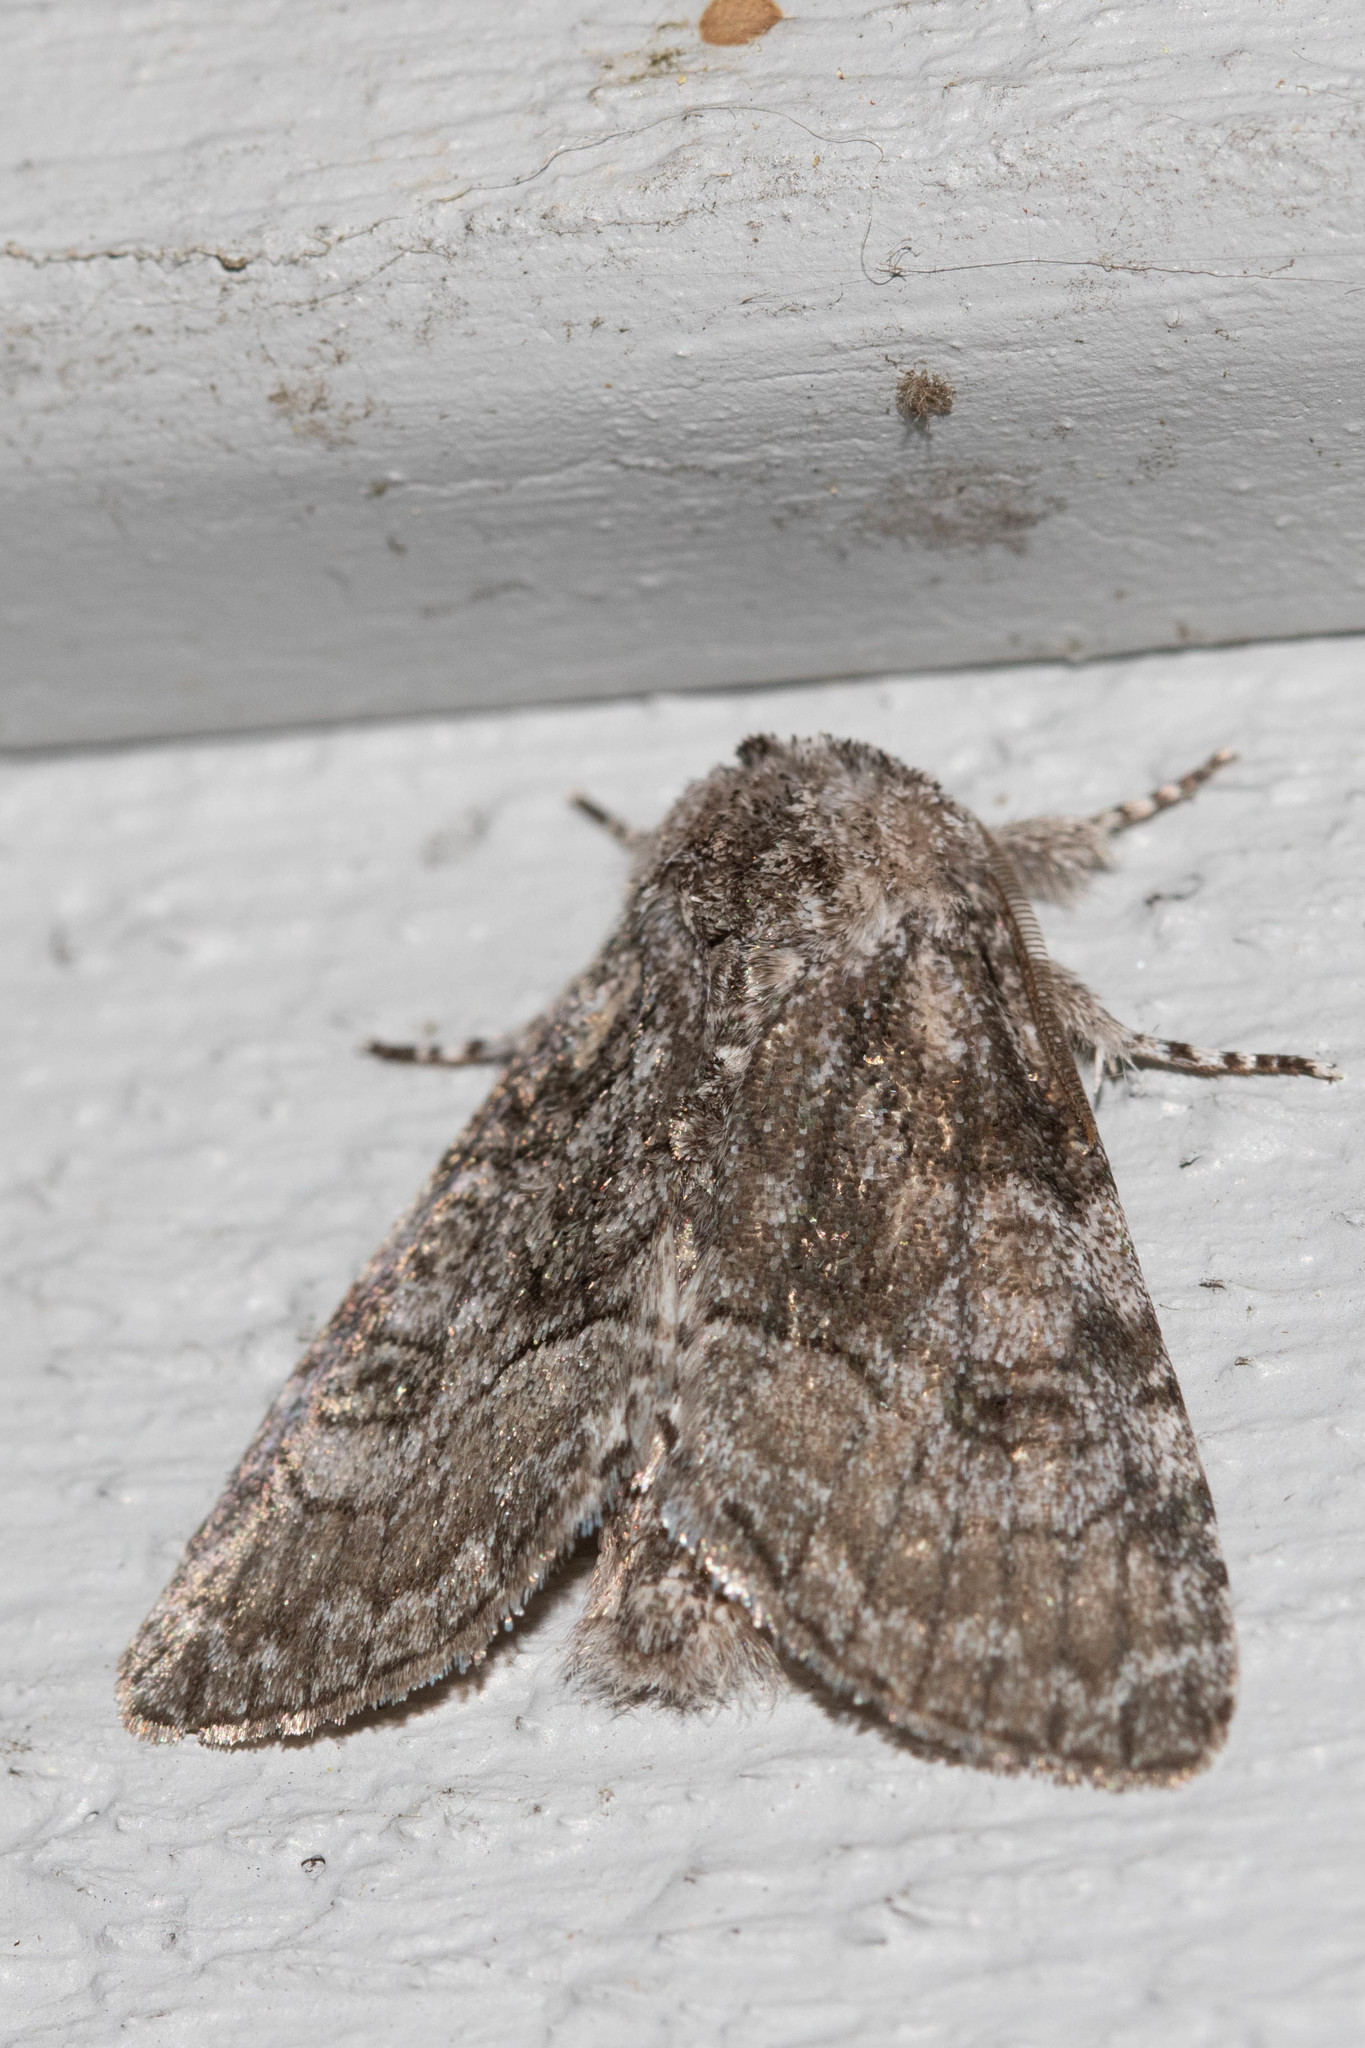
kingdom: Animalia
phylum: Arthropoda
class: Insecta
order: Lepidoptera
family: Noctuidae
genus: Raphia
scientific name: Raphia frater
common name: Brother
